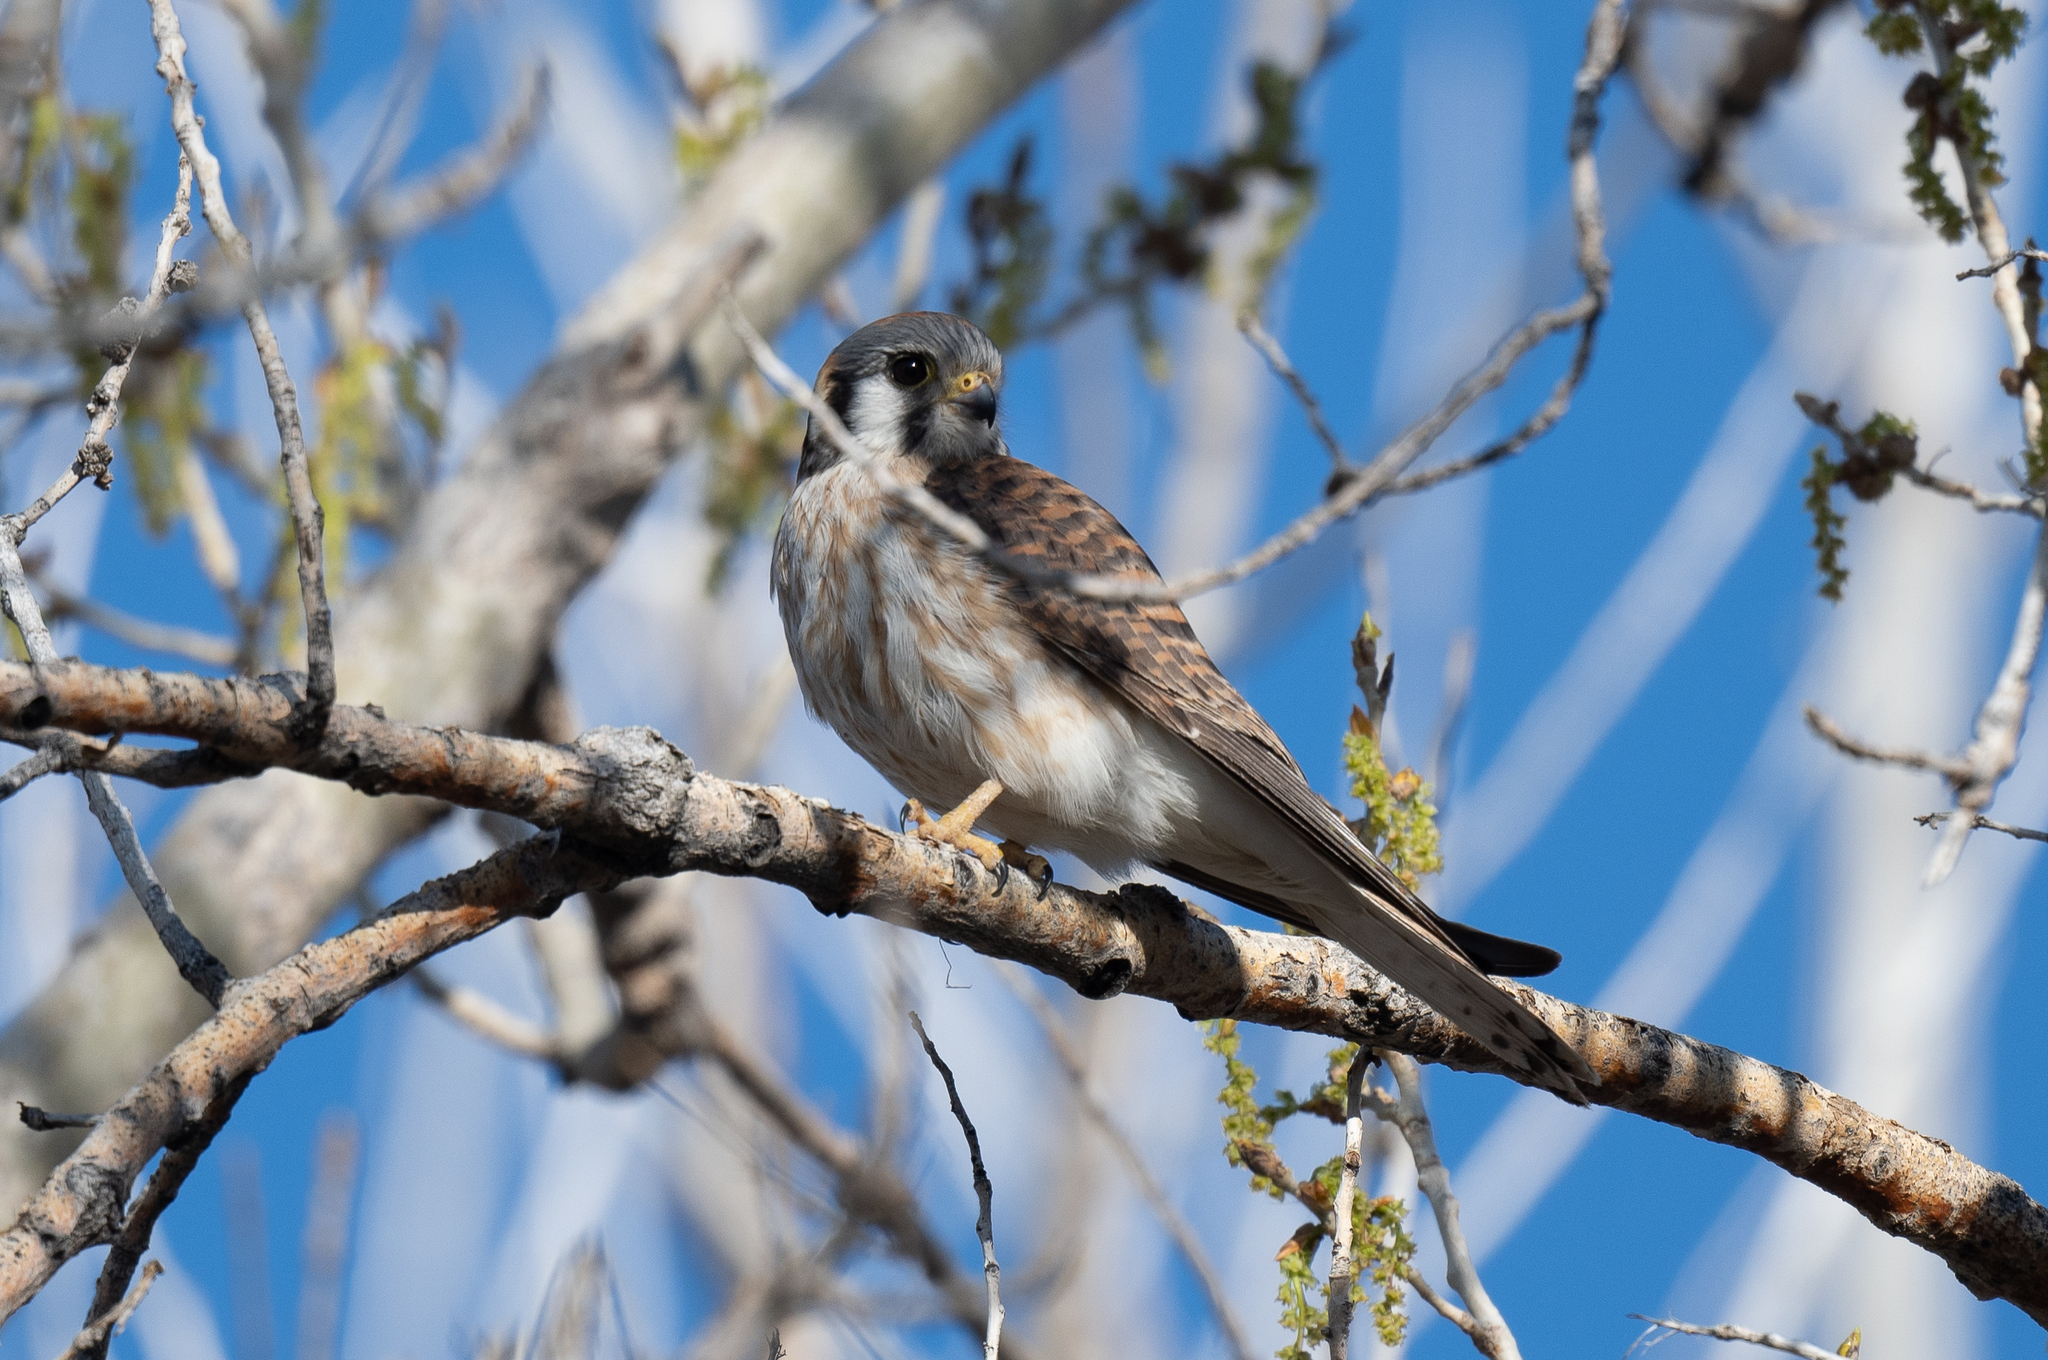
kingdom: Animalia
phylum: Chordata
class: Aves
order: Falconiformes
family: Falconidae
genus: Falco
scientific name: Falco sparverius
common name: American kestrel
